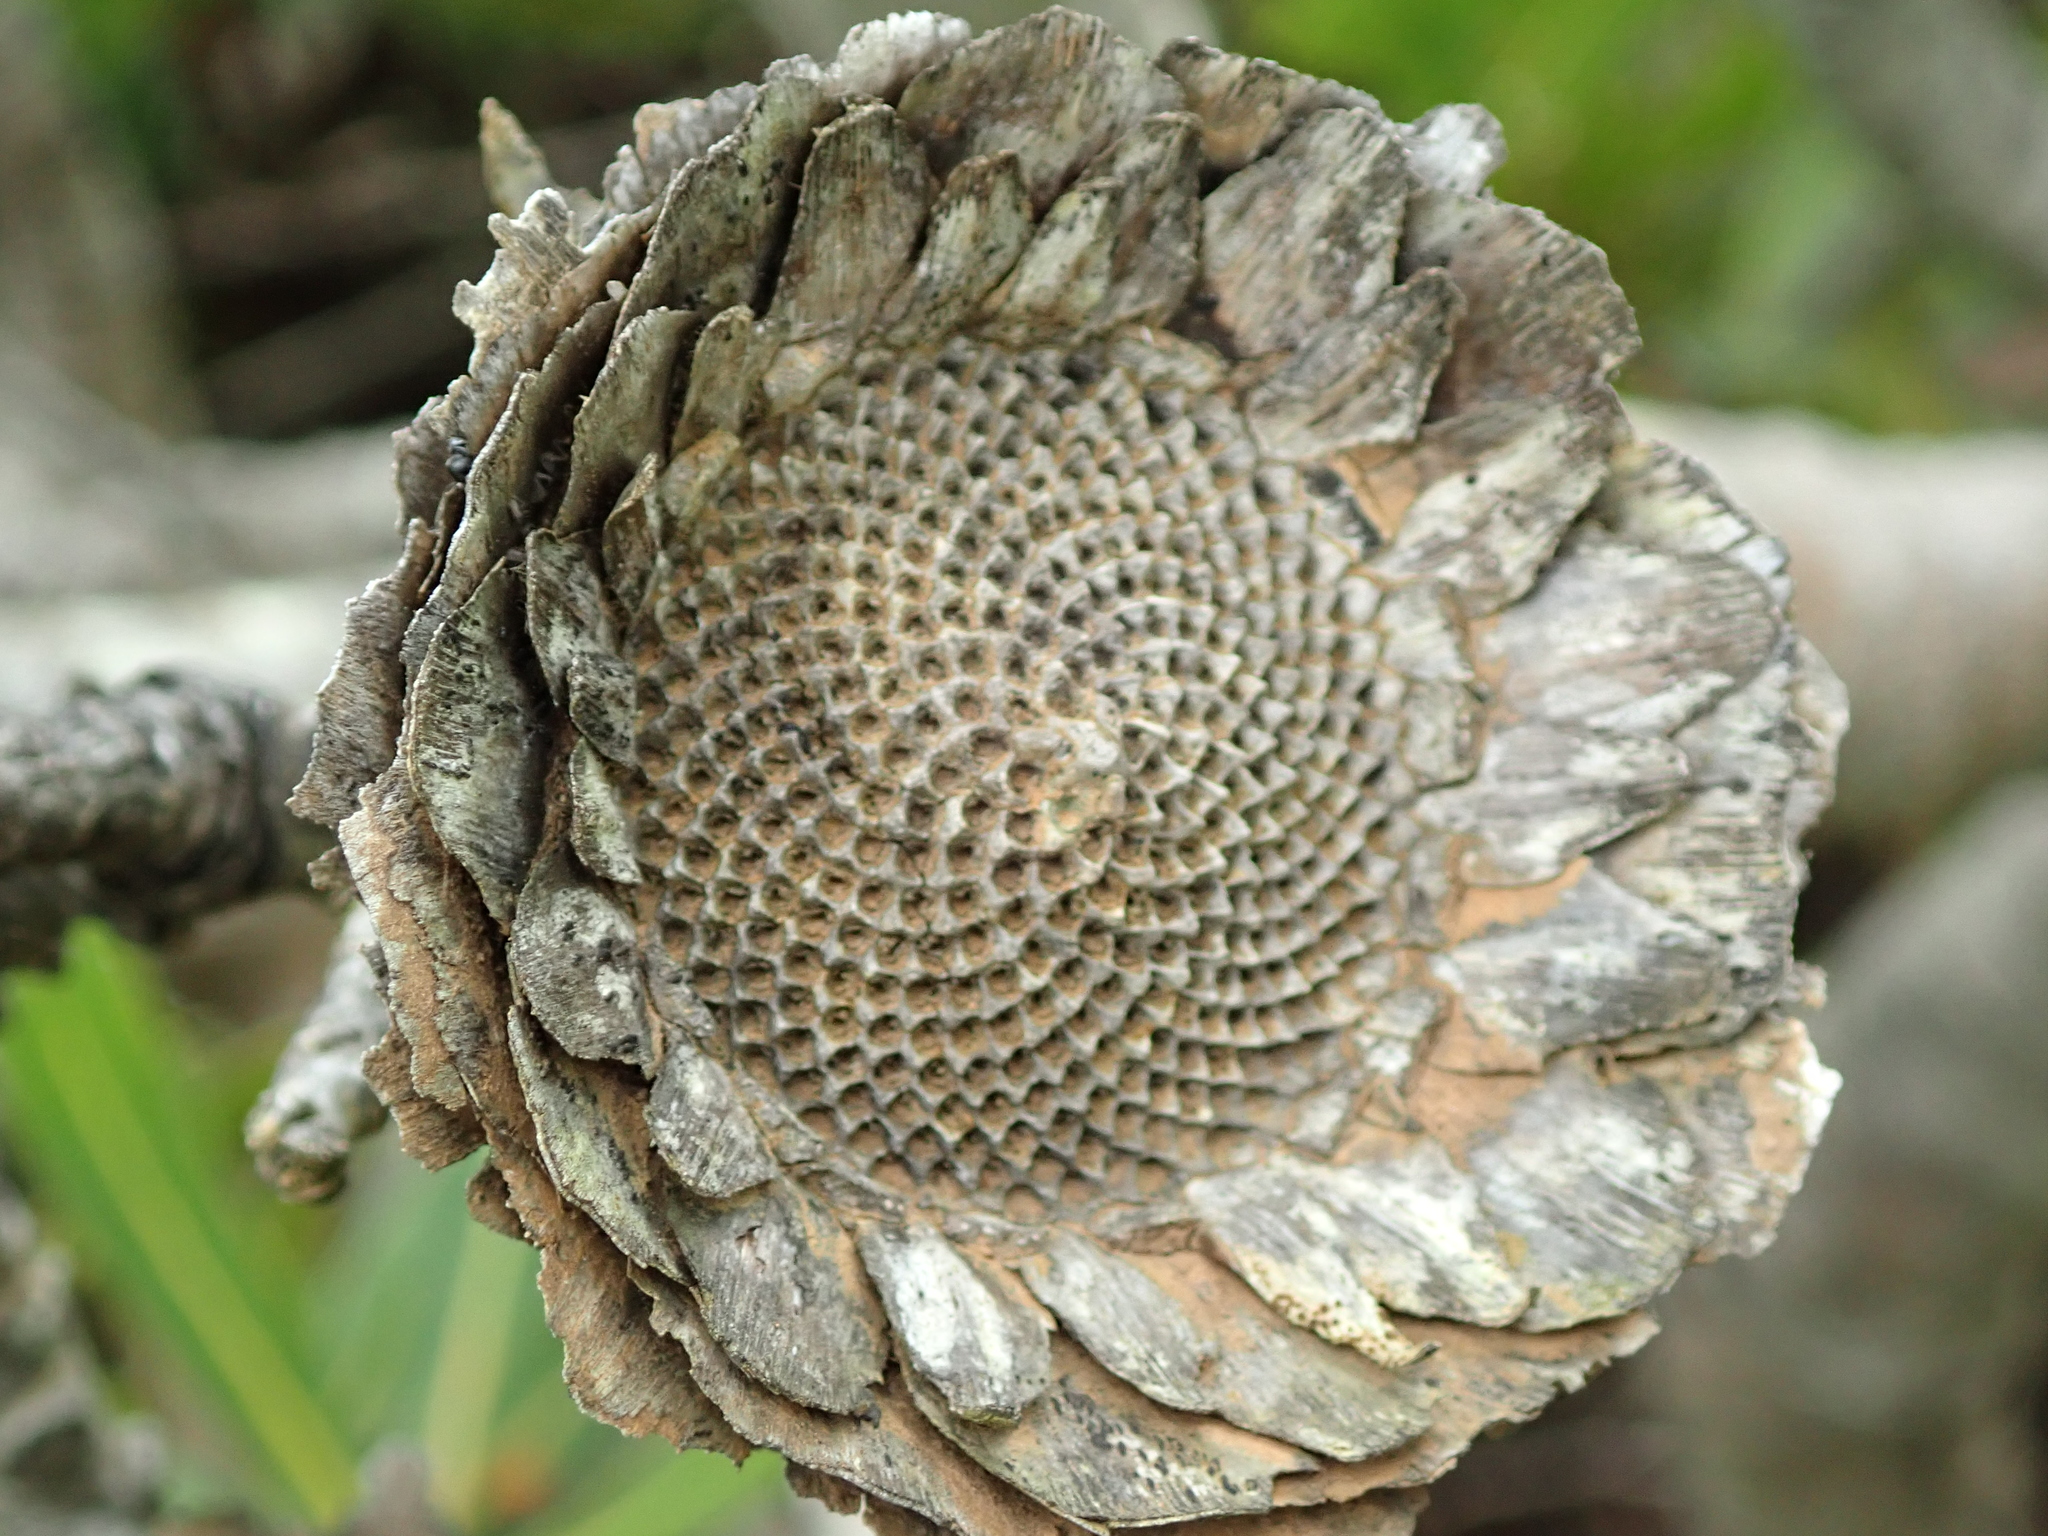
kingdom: Plantae
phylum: Tracheophyta
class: Magnoliopsida
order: Proteales
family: Proteaceae
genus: Protea
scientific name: Protea neriifolia
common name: Blue sugarbush
